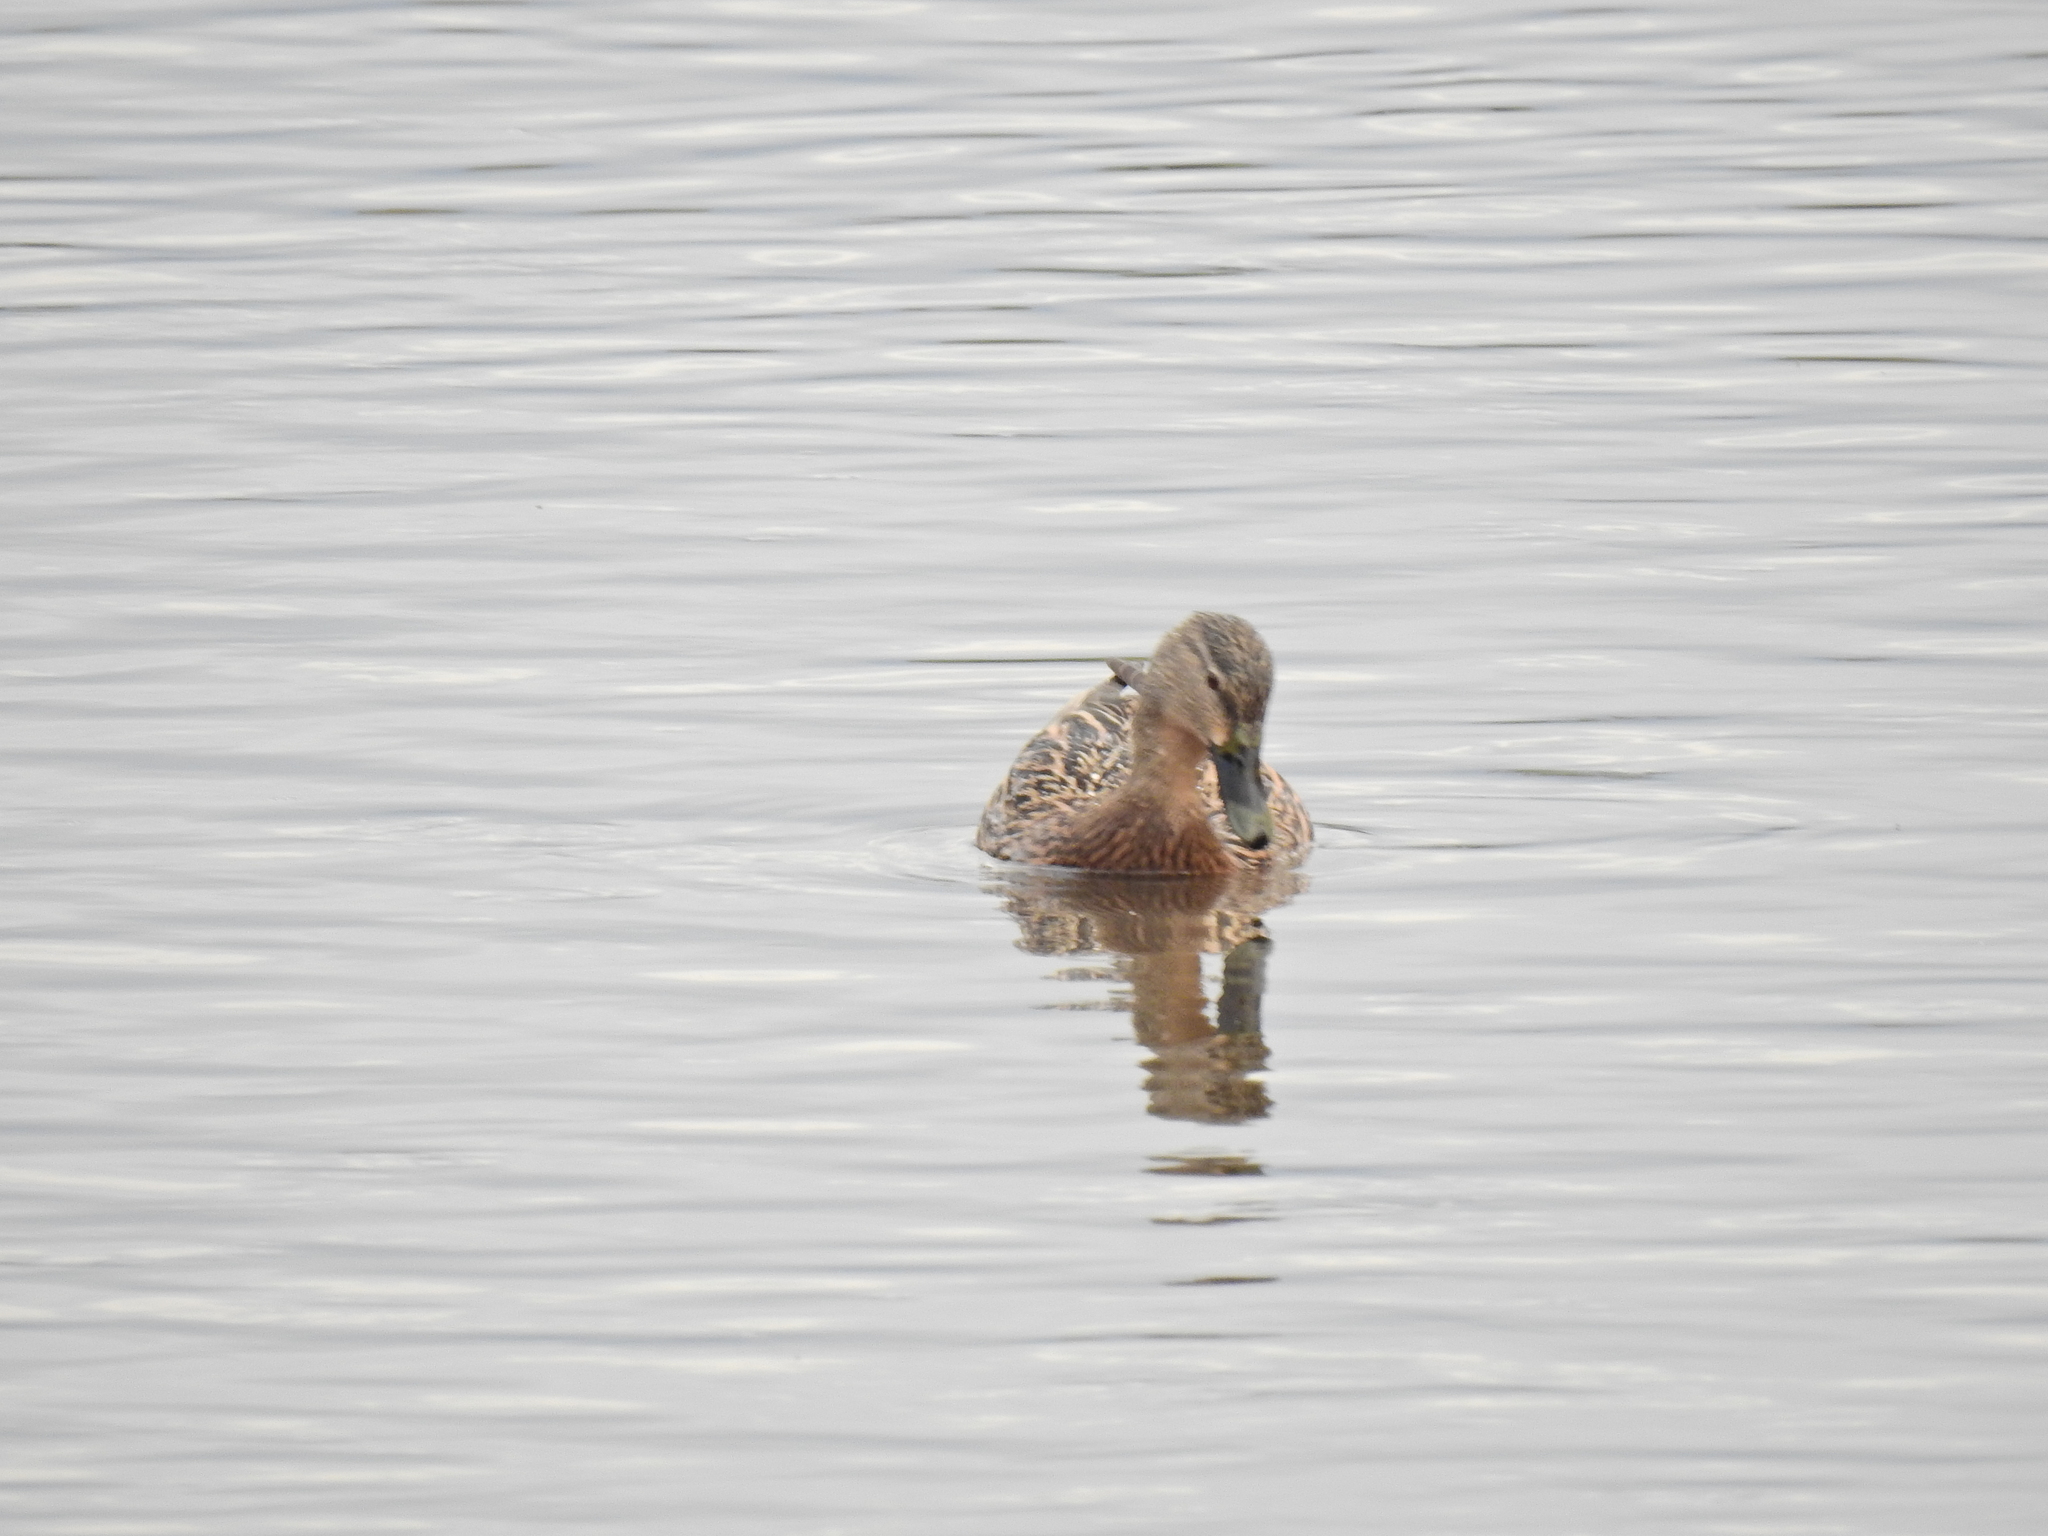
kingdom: Animalia
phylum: Chordata
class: Aves
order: Anseriformes
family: Anatidae
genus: Anas
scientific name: Anas platyrhynchos
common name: Mallard
